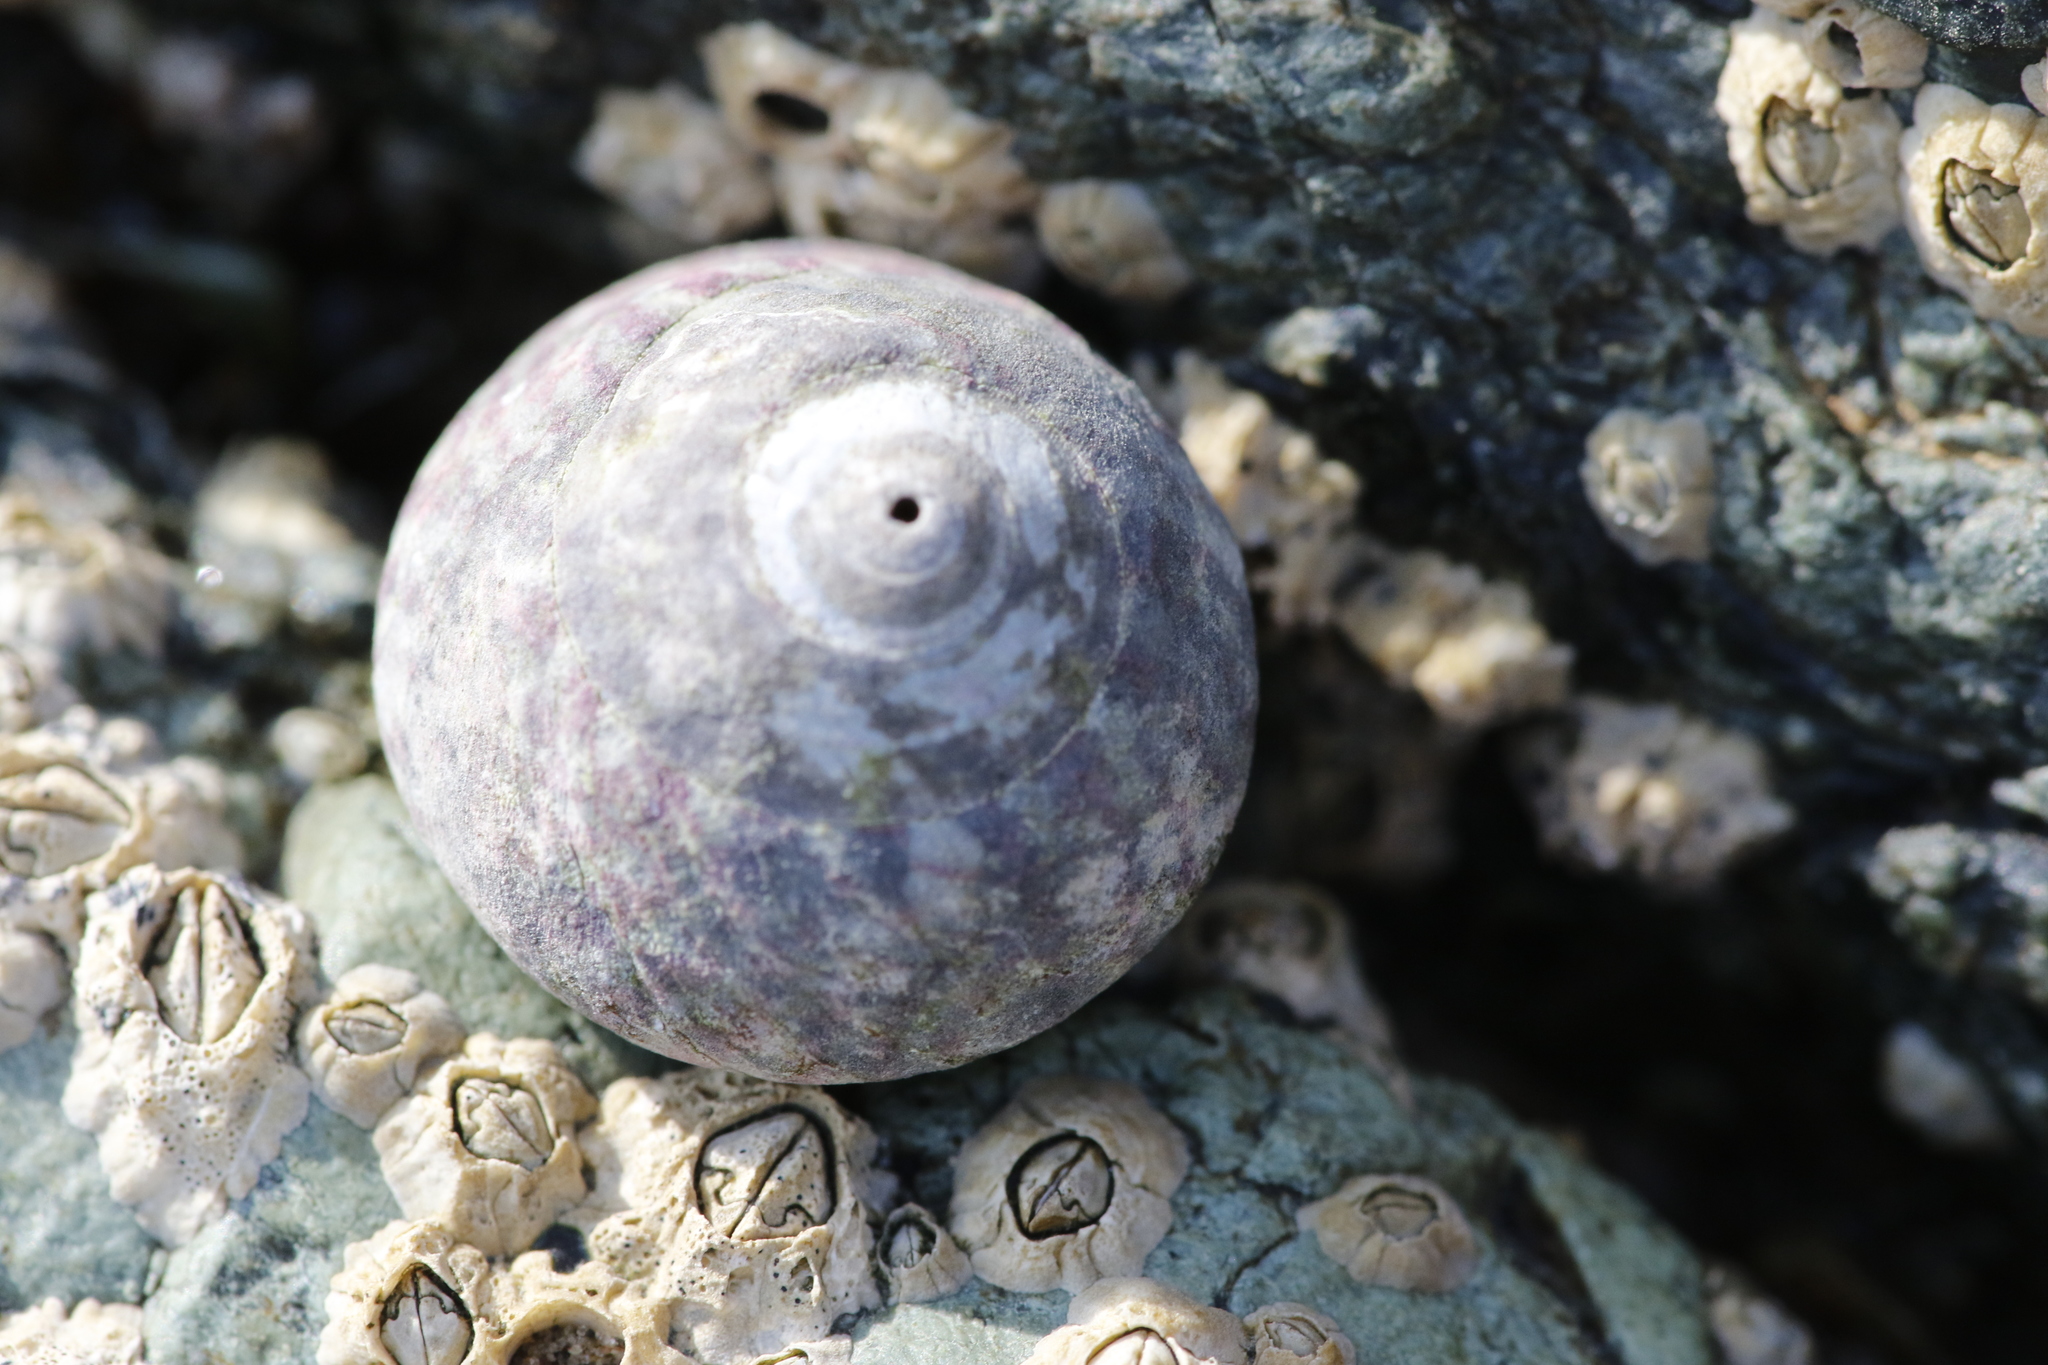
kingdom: Animalia
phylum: Mollusca
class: Gastropoda
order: Trochida
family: Trochidae
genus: Steromphala
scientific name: Steromphala umbilicalis
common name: Flat top shell
